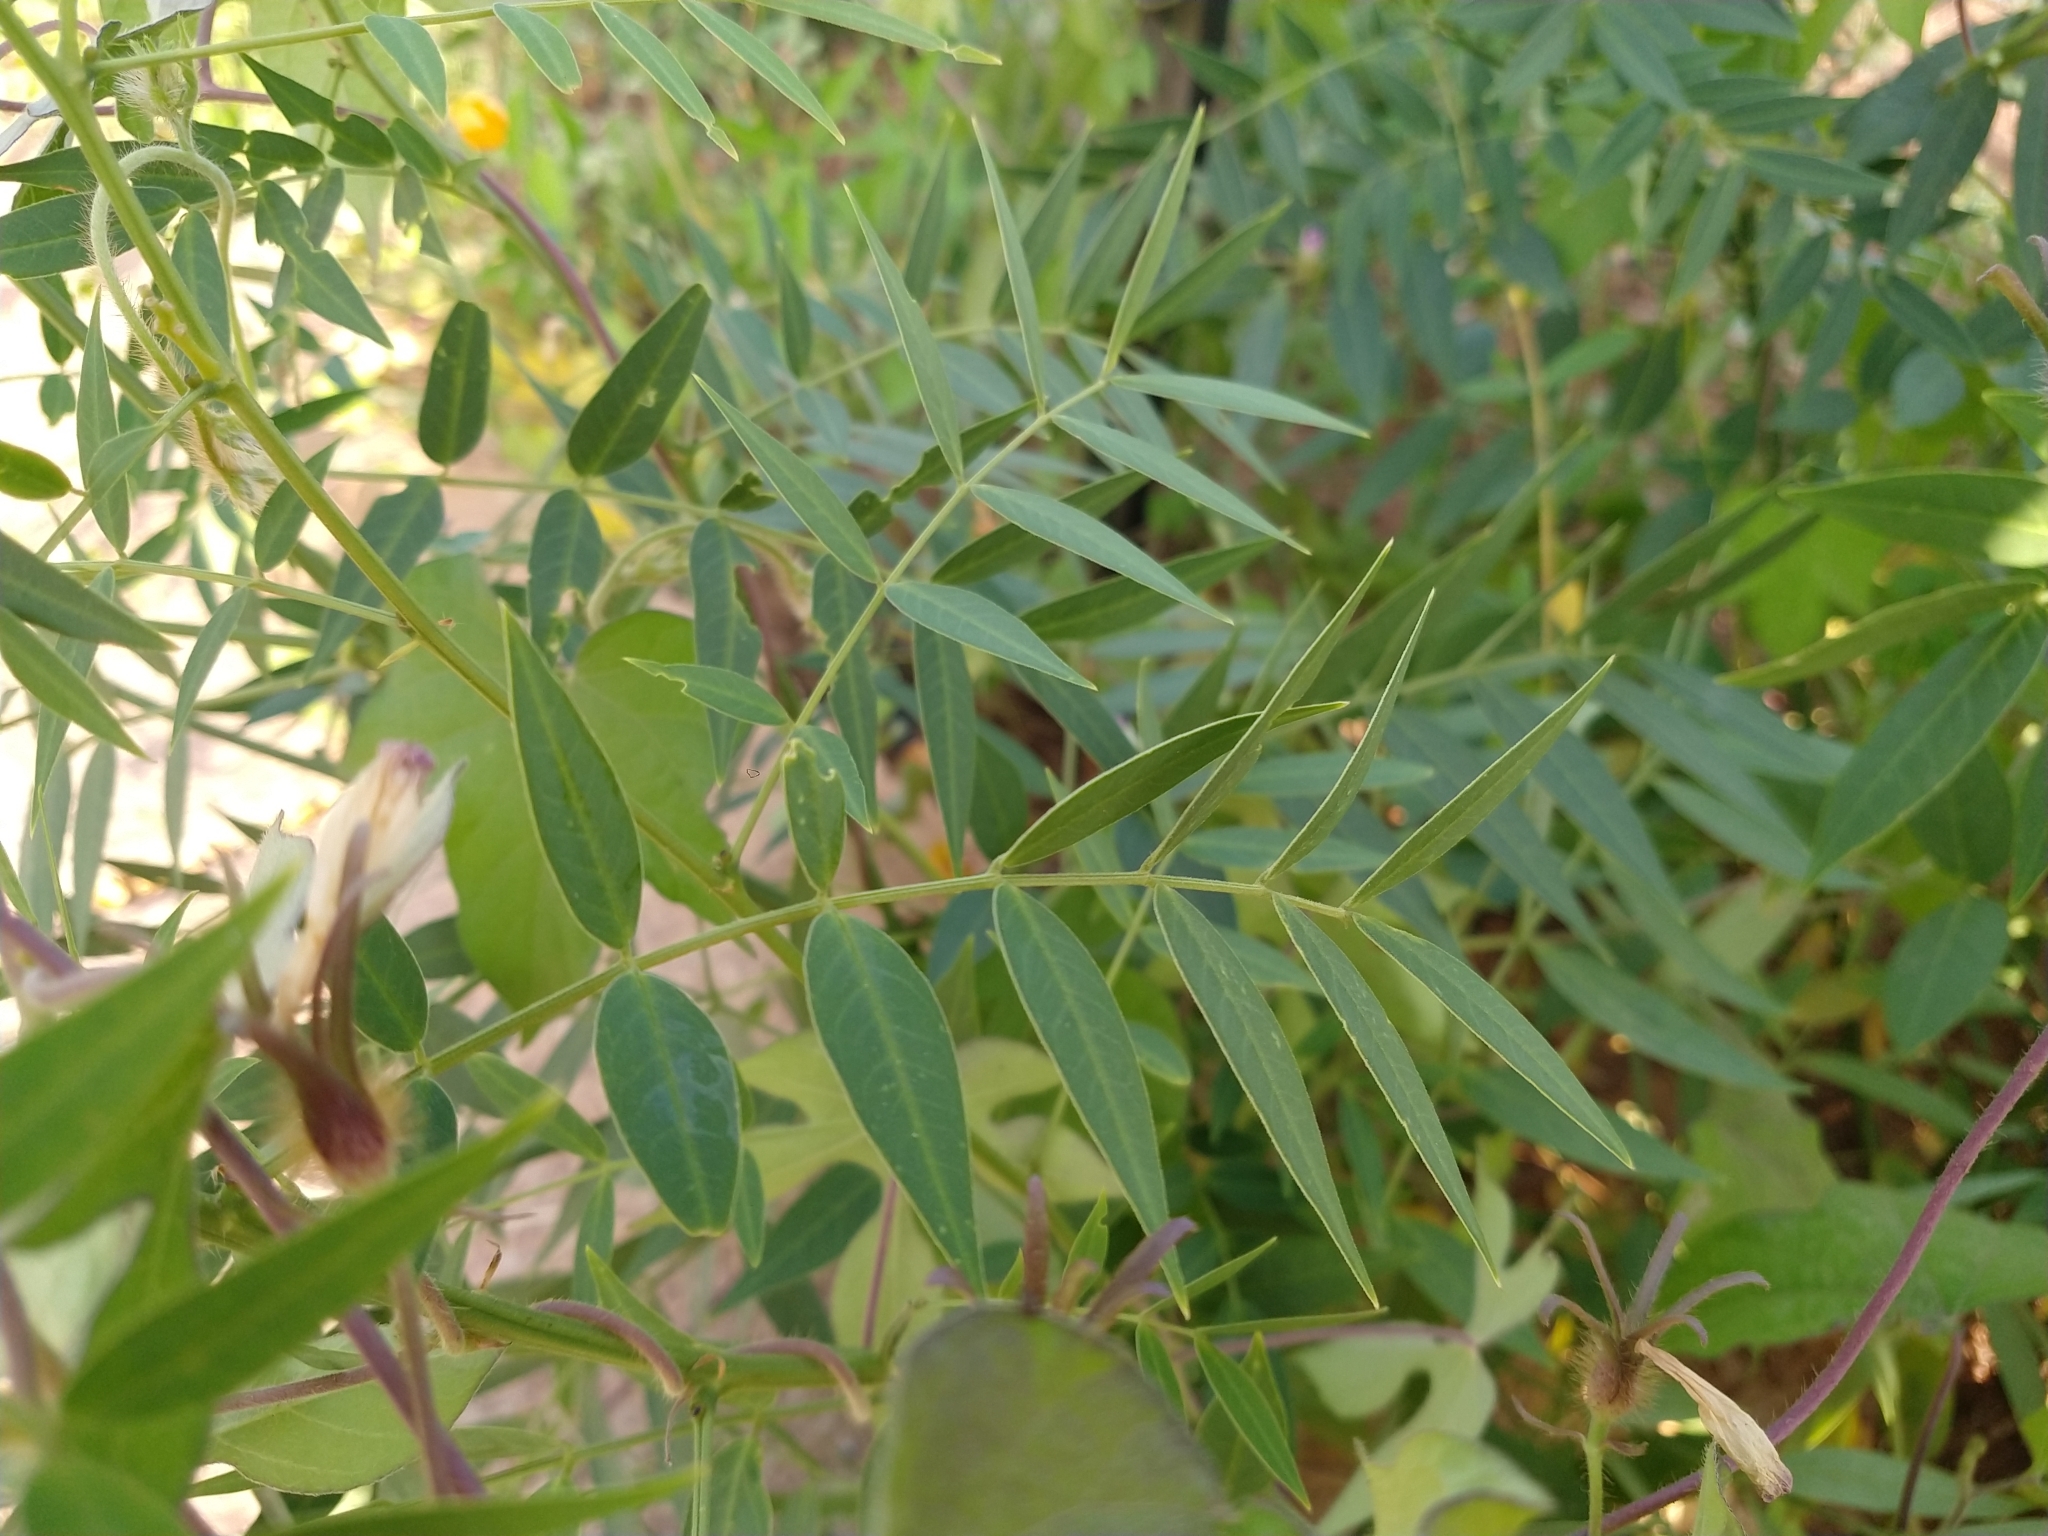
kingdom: Plantae
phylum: Tracheophyta
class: Magnoliopsida
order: Fabales
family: Fabaceae
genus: Senna
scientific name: Senna hirsuta
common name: Woolly senna
